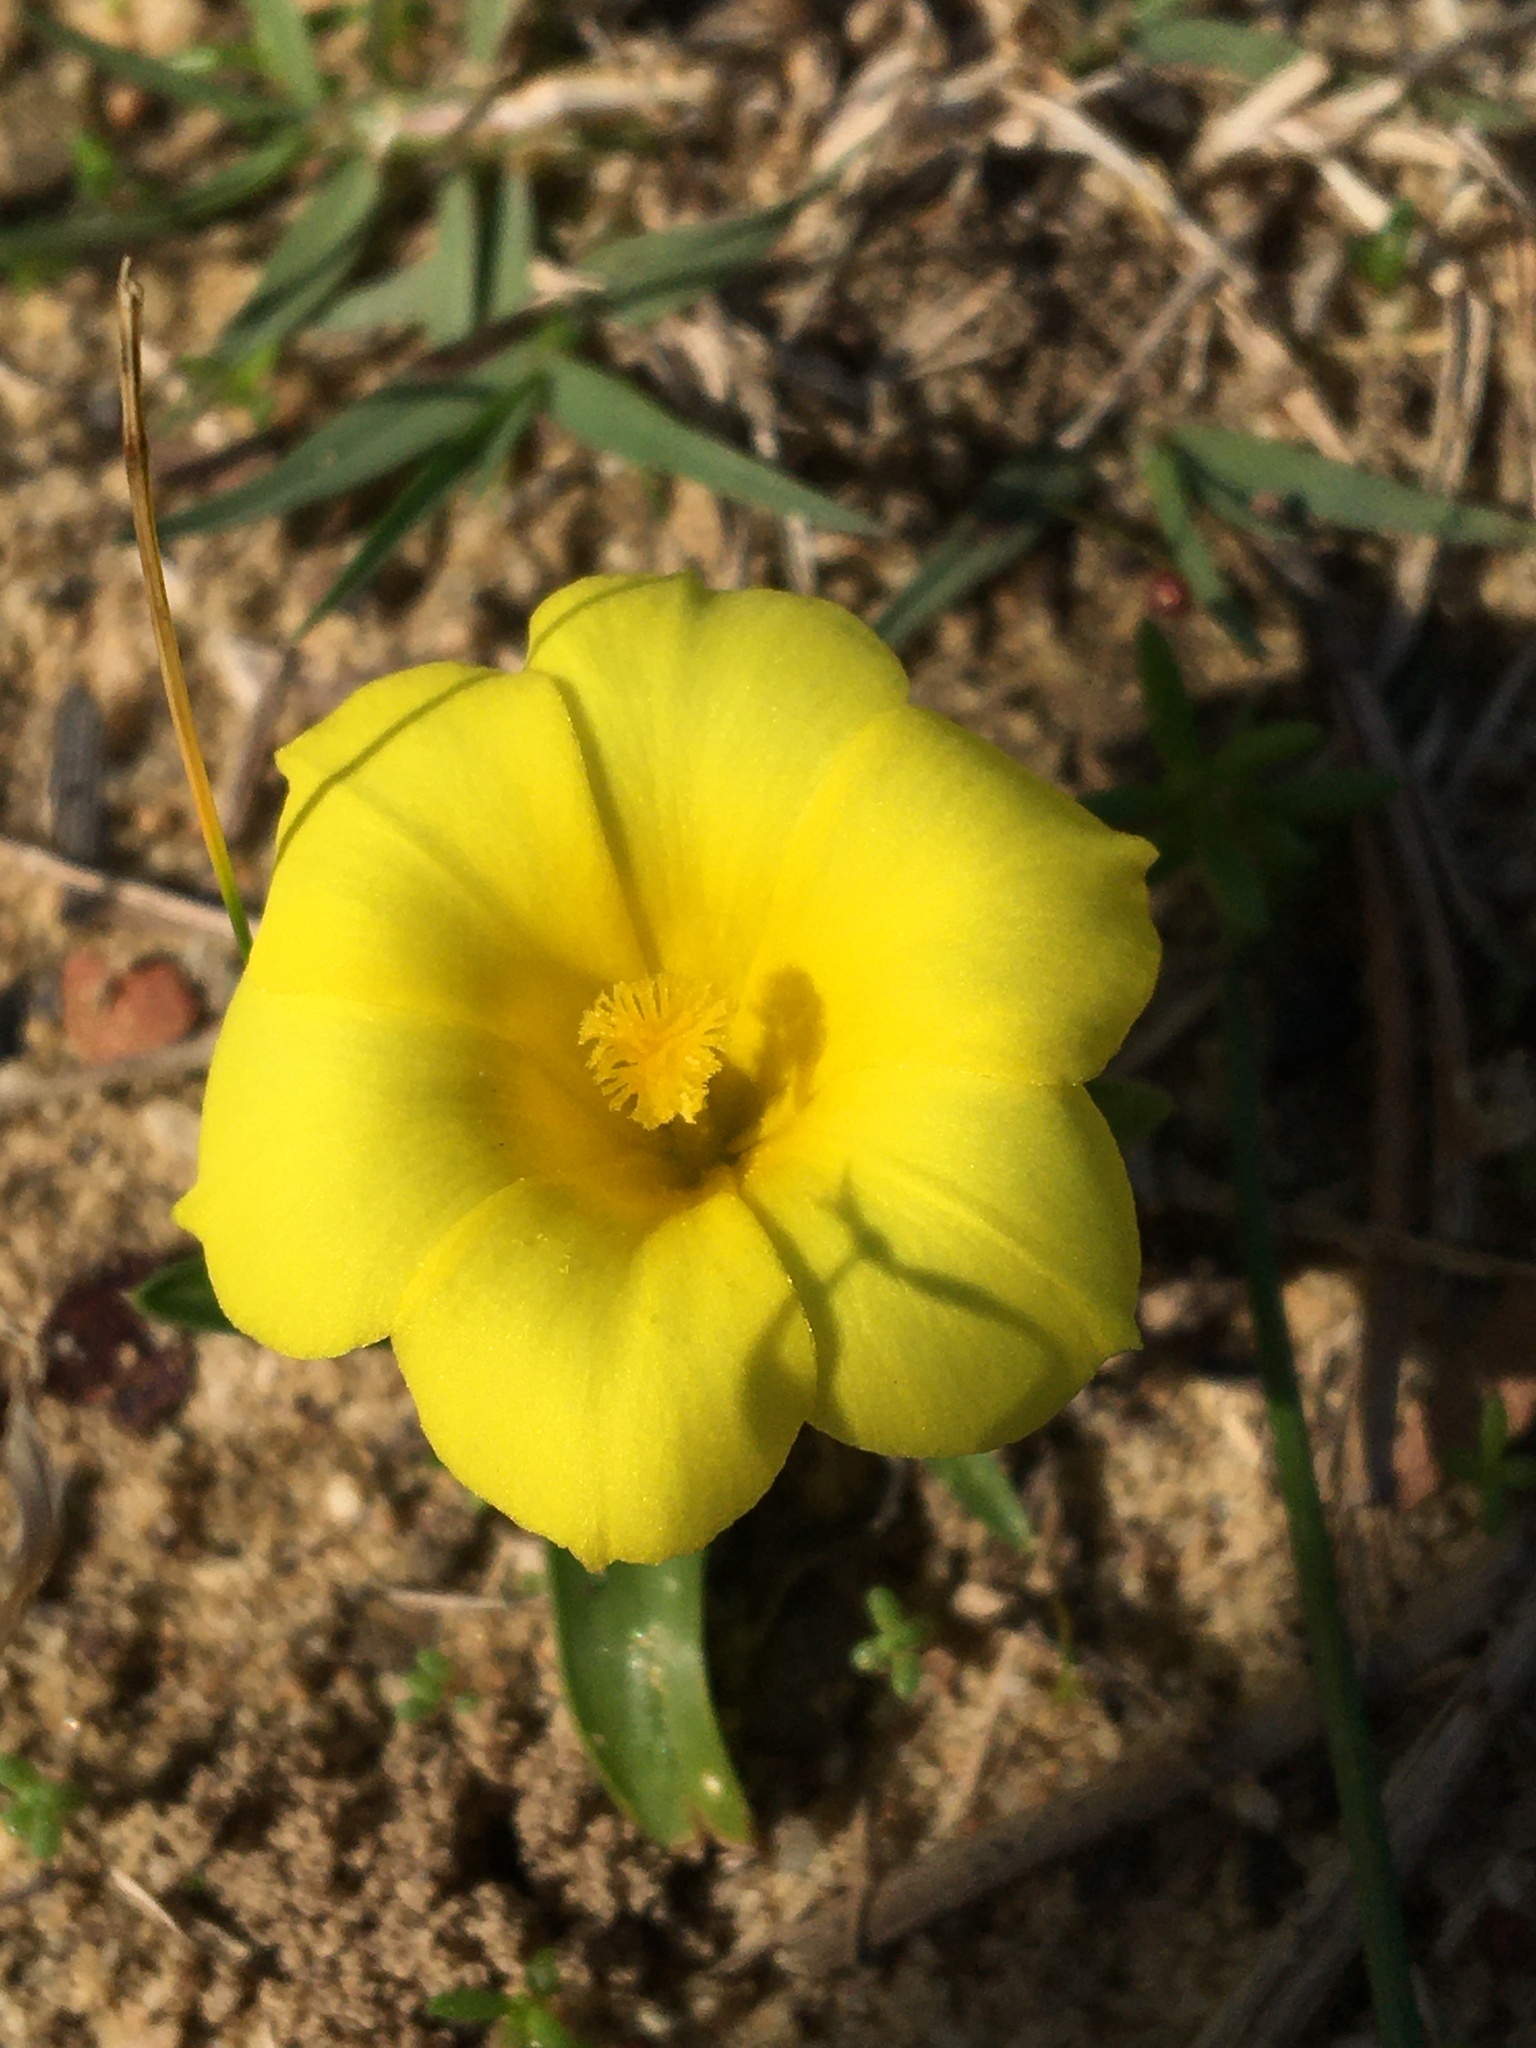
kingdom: Plantae
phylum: Tracheophyta
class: Liliopsida
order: Asparagales
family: Iridaceae
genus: Moraea
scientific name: Moraea galaxia
